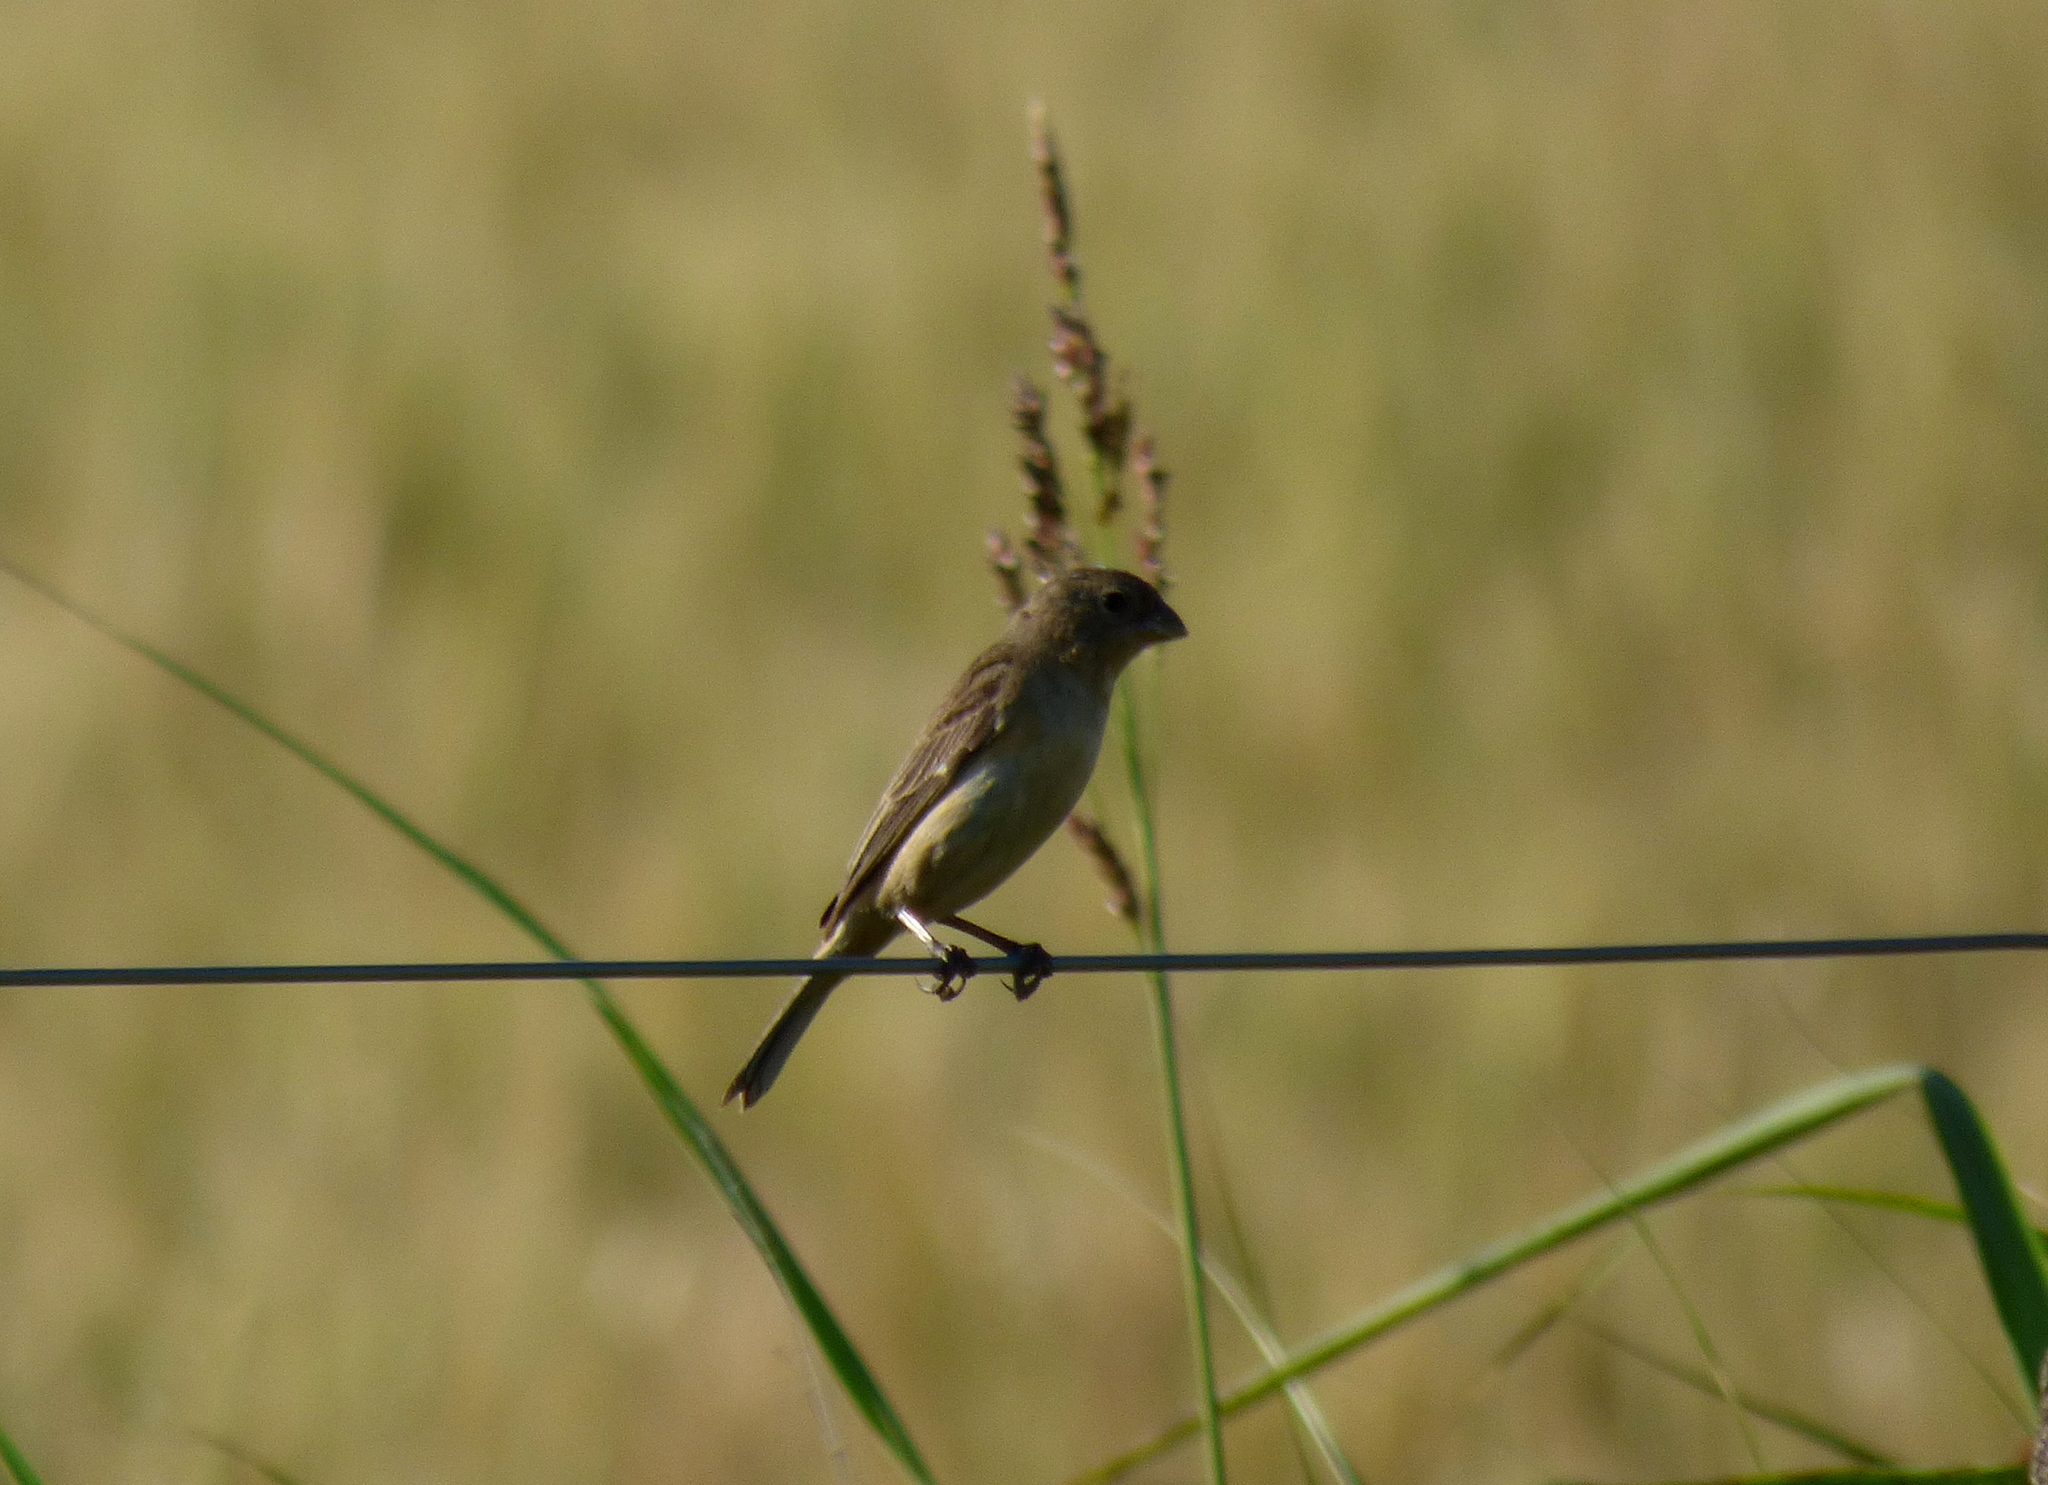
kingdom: Animalia
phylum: Chordata
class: Aves
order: Passeriformes
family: Thraupidae
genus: Sporophila
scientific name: Sporophila ruficollis
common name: Dark-throated seedeater
